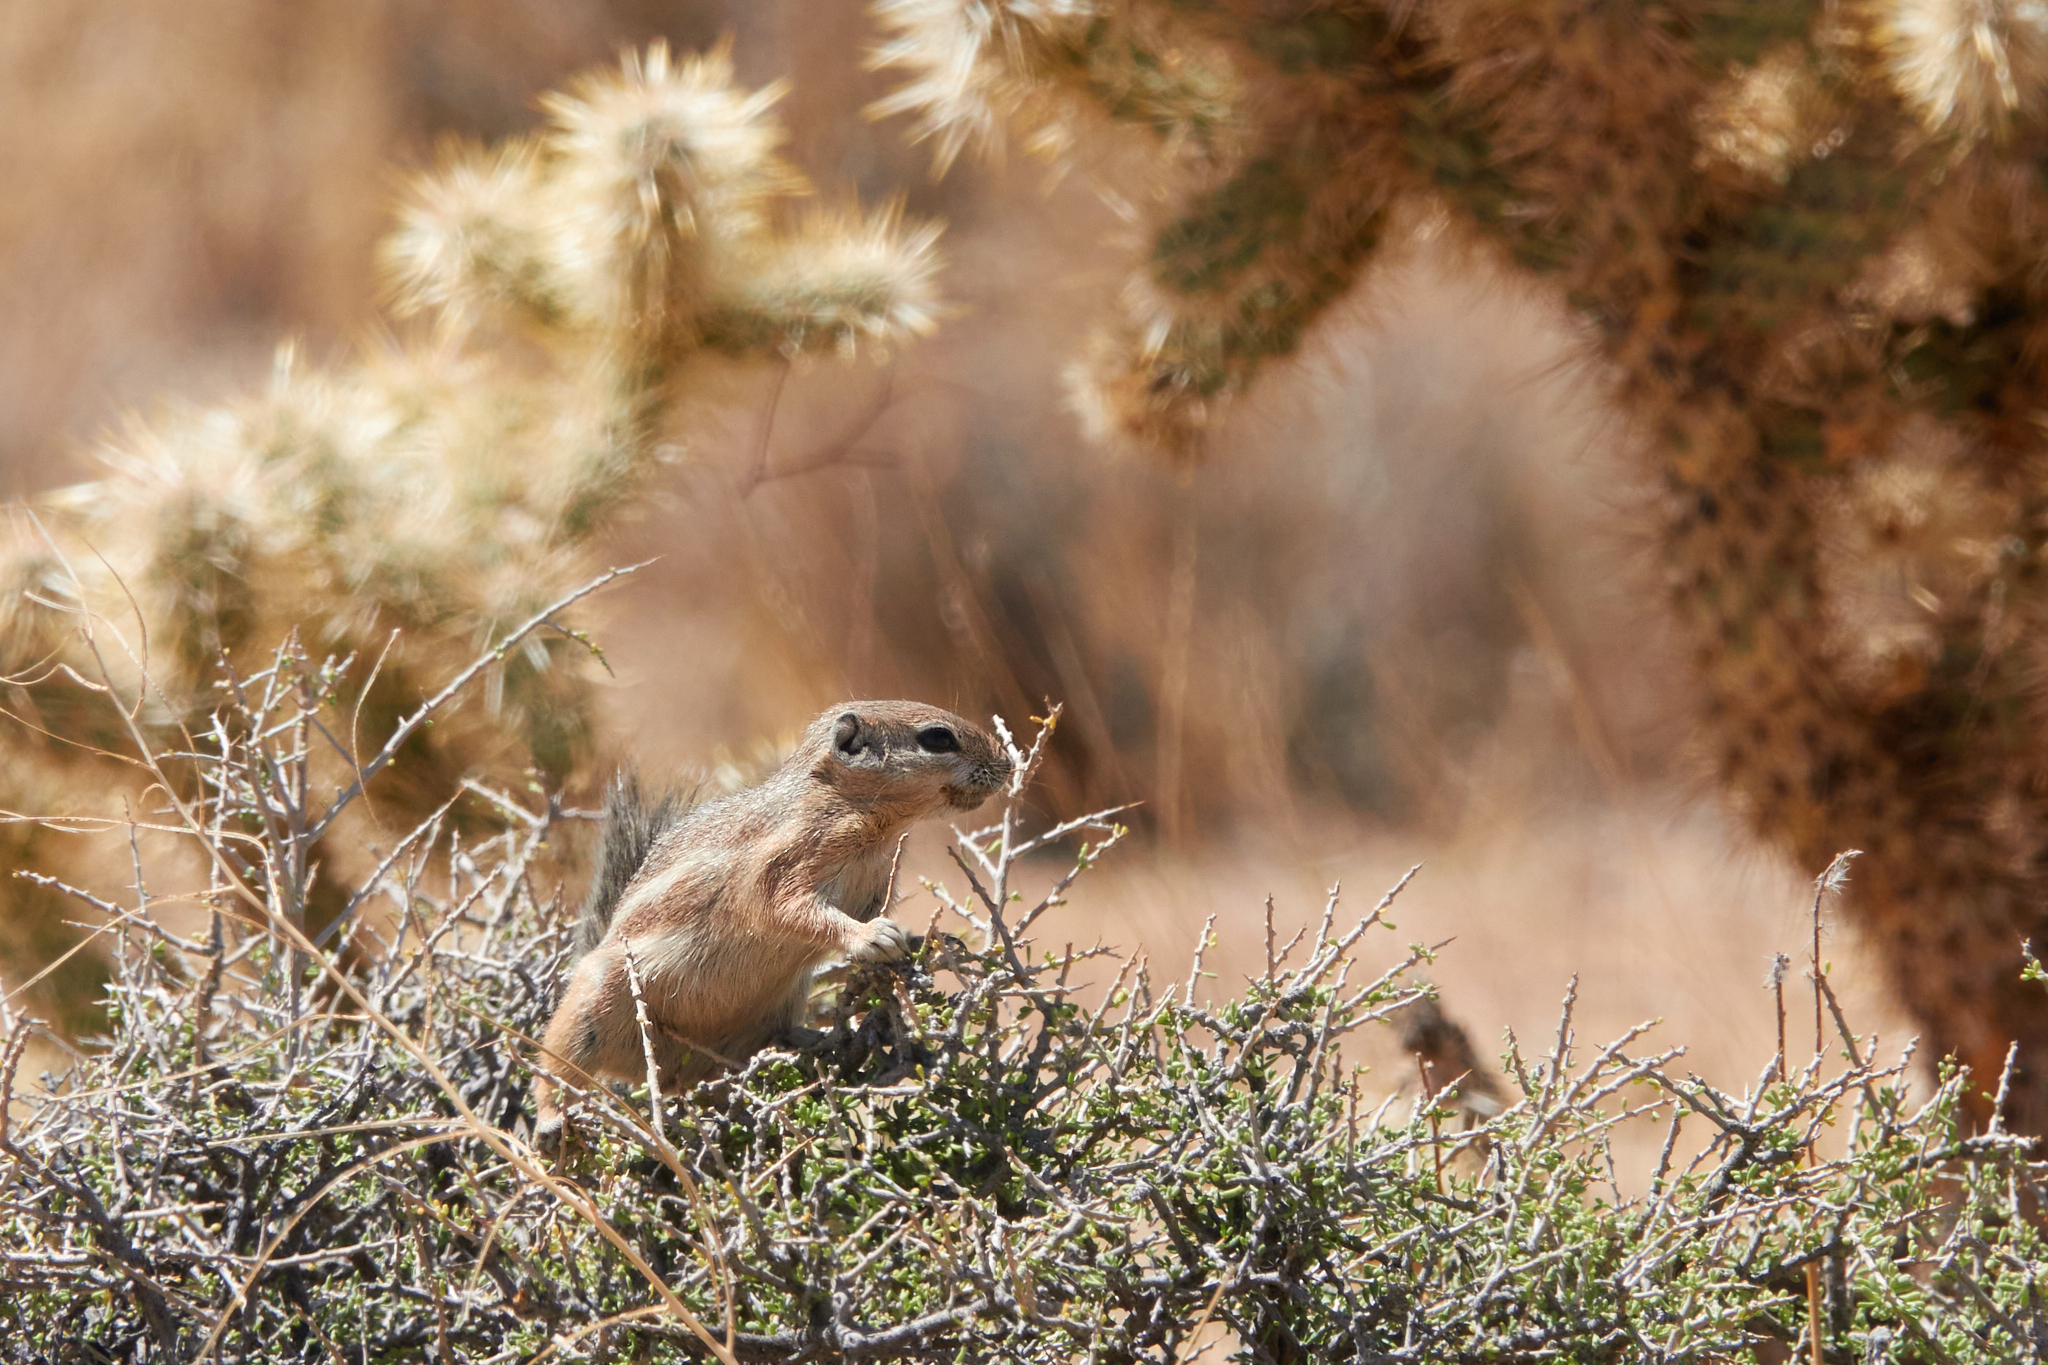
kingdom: Animalia
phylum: Chordata
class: Mammalia
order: Rodentia
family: Sciuridae
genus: Ammospermophilus
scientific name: Ammospermophilus leucurus
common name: White-tailed antelope squirrel
